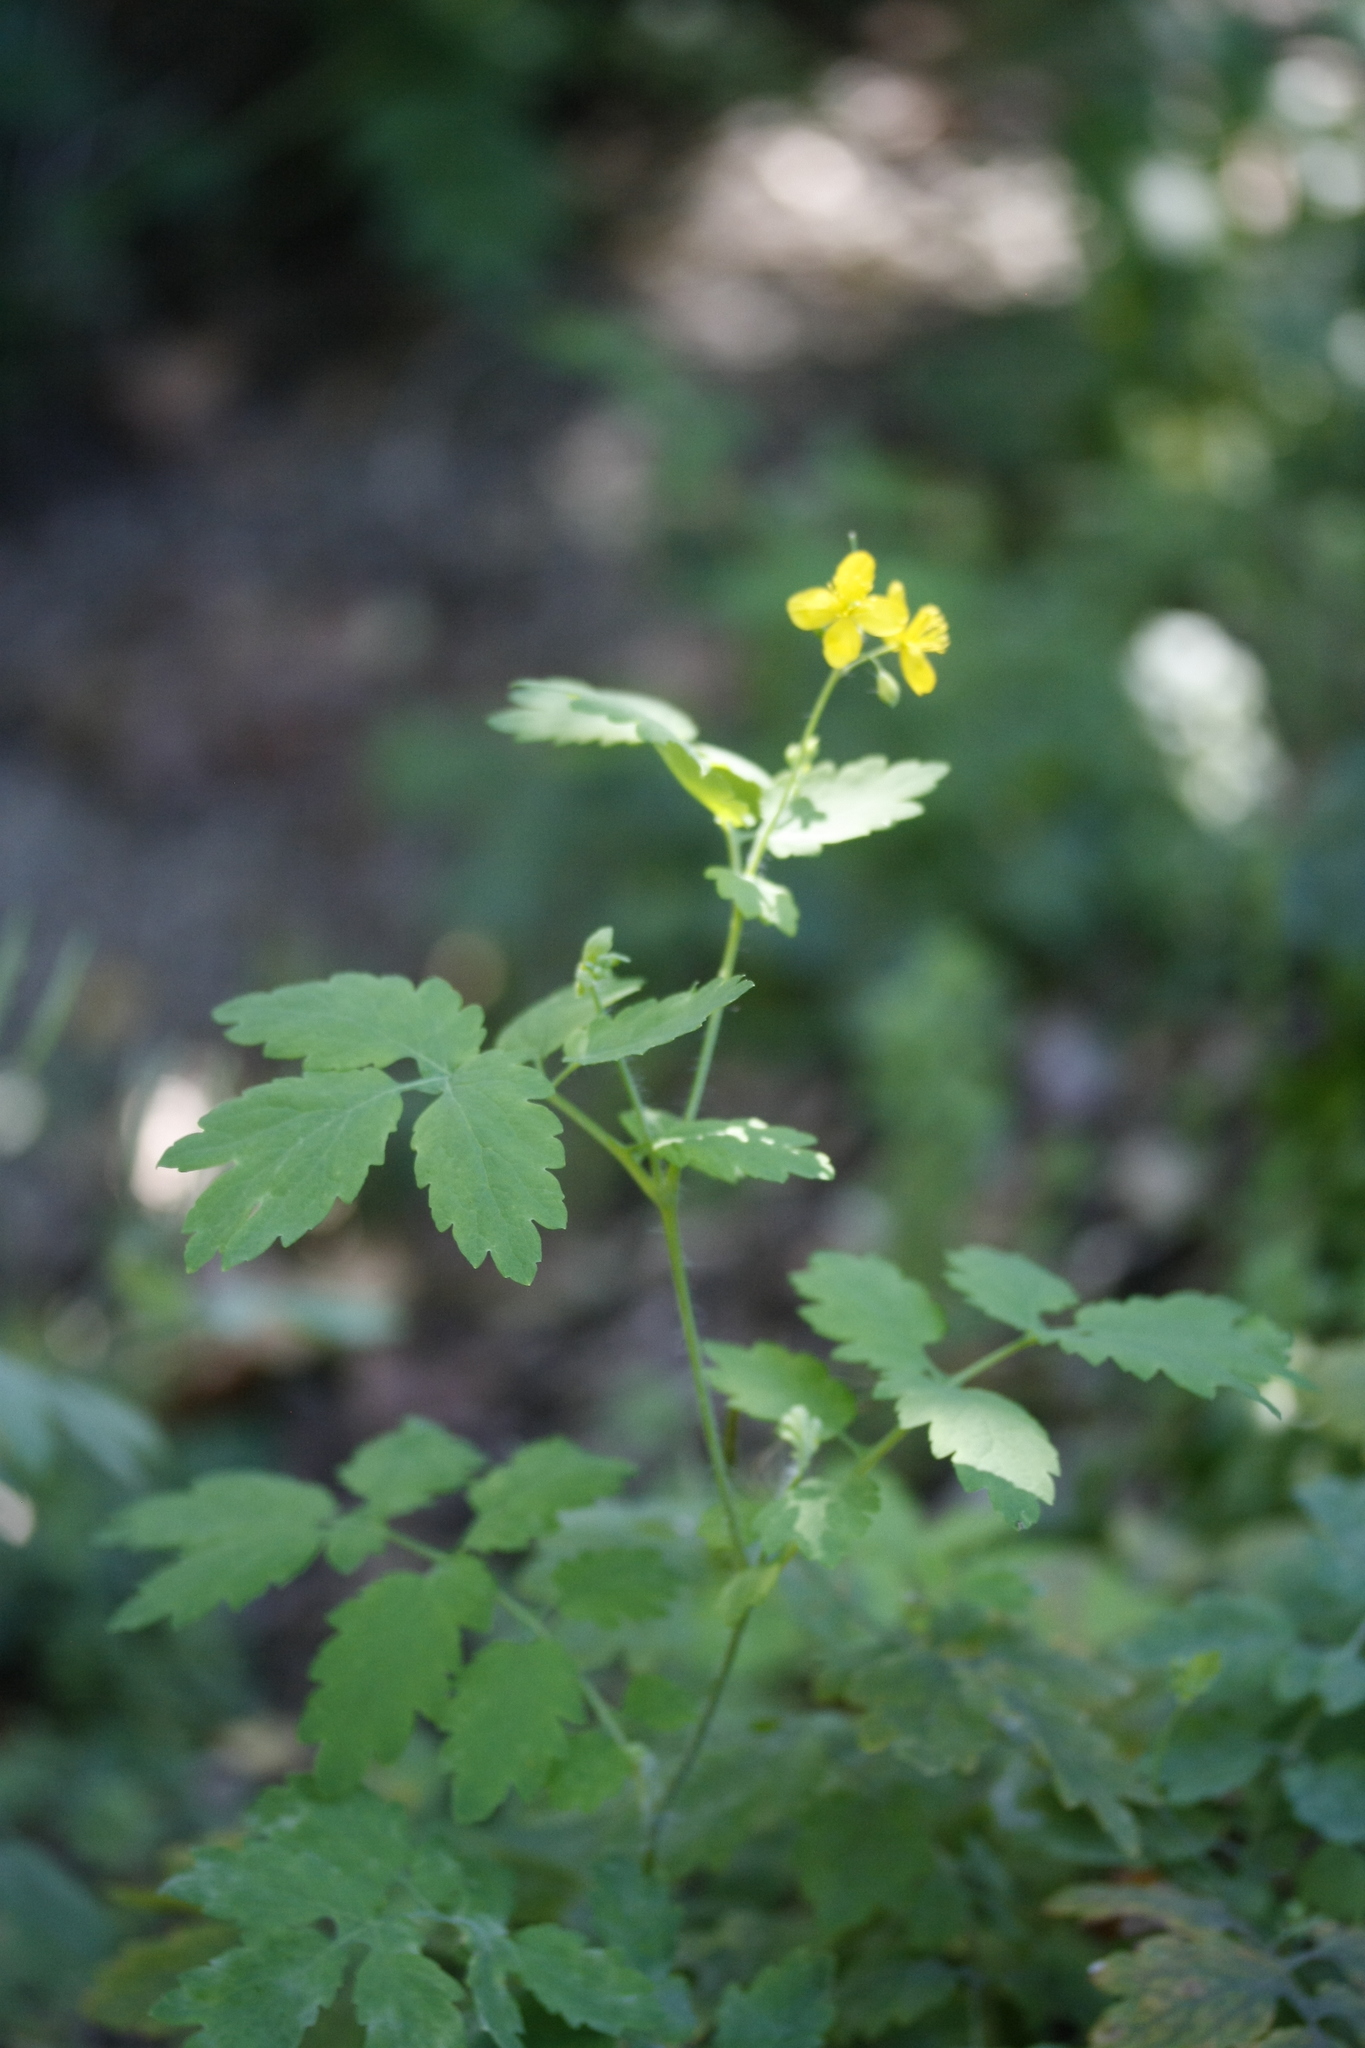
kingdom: Plantae
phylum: Tracheophyta
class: Magnoliopsida
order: Ranunculales
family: Papaveraceae
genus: Chelidonium
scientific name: Chelidonium majus
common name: Greater celandine
